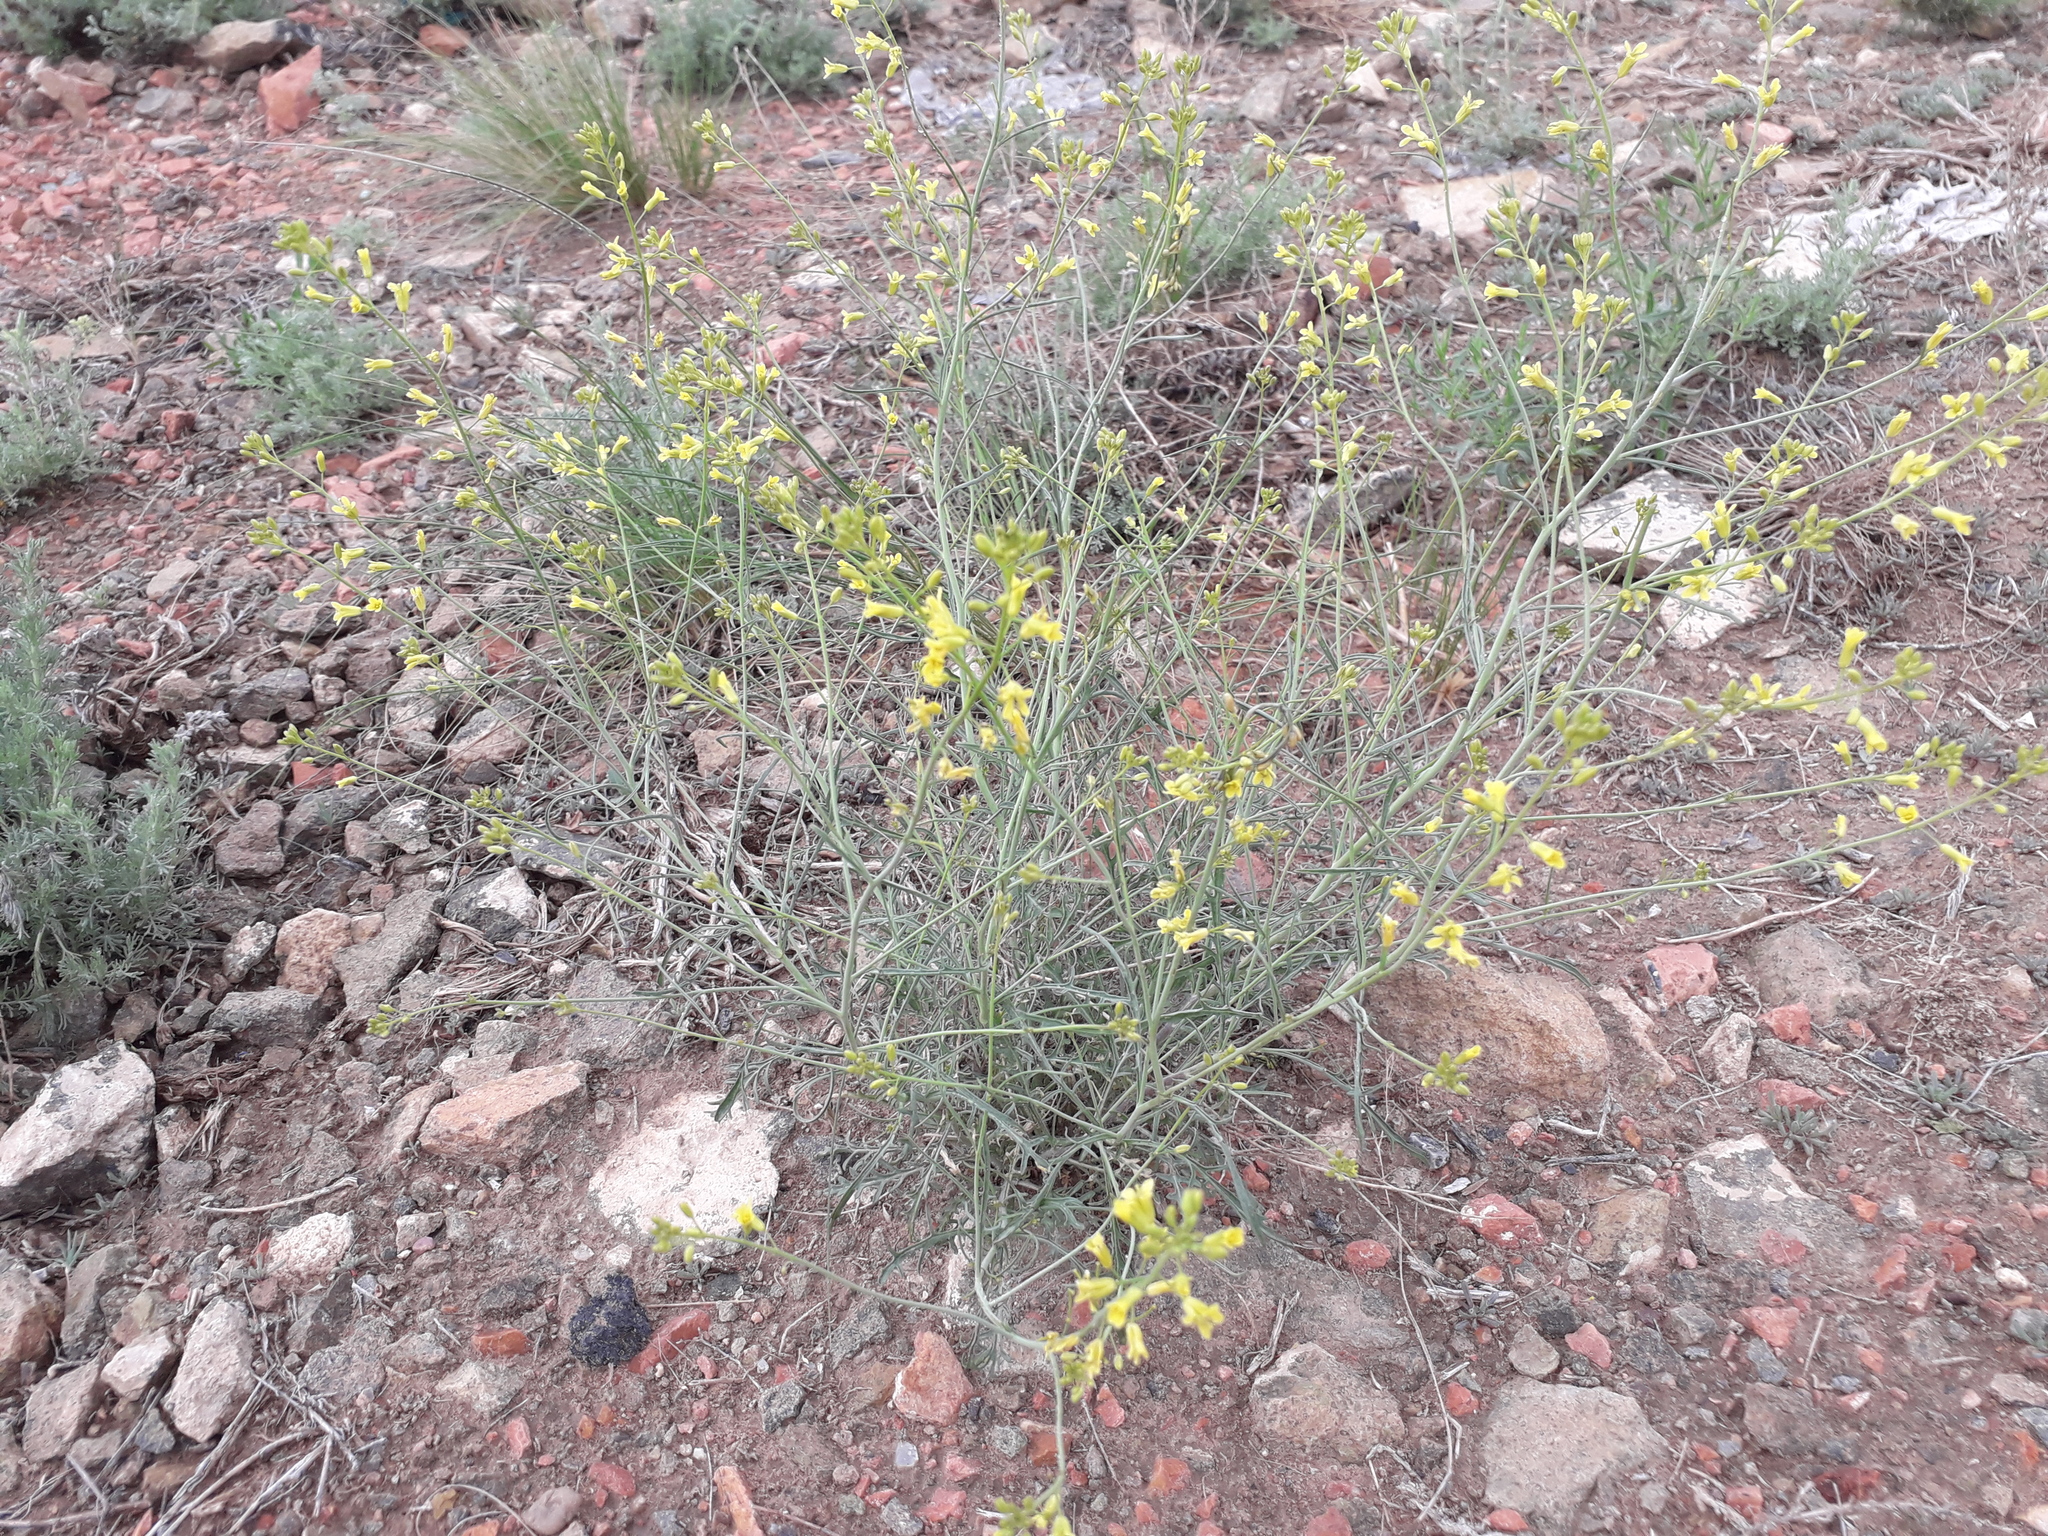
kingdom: Plantae
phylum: Tracheophyta
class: Magnoliopsida
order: Brassicales
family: Brassicaceae
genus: Sisymbrium
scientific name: Sisymbrium polymorphum
